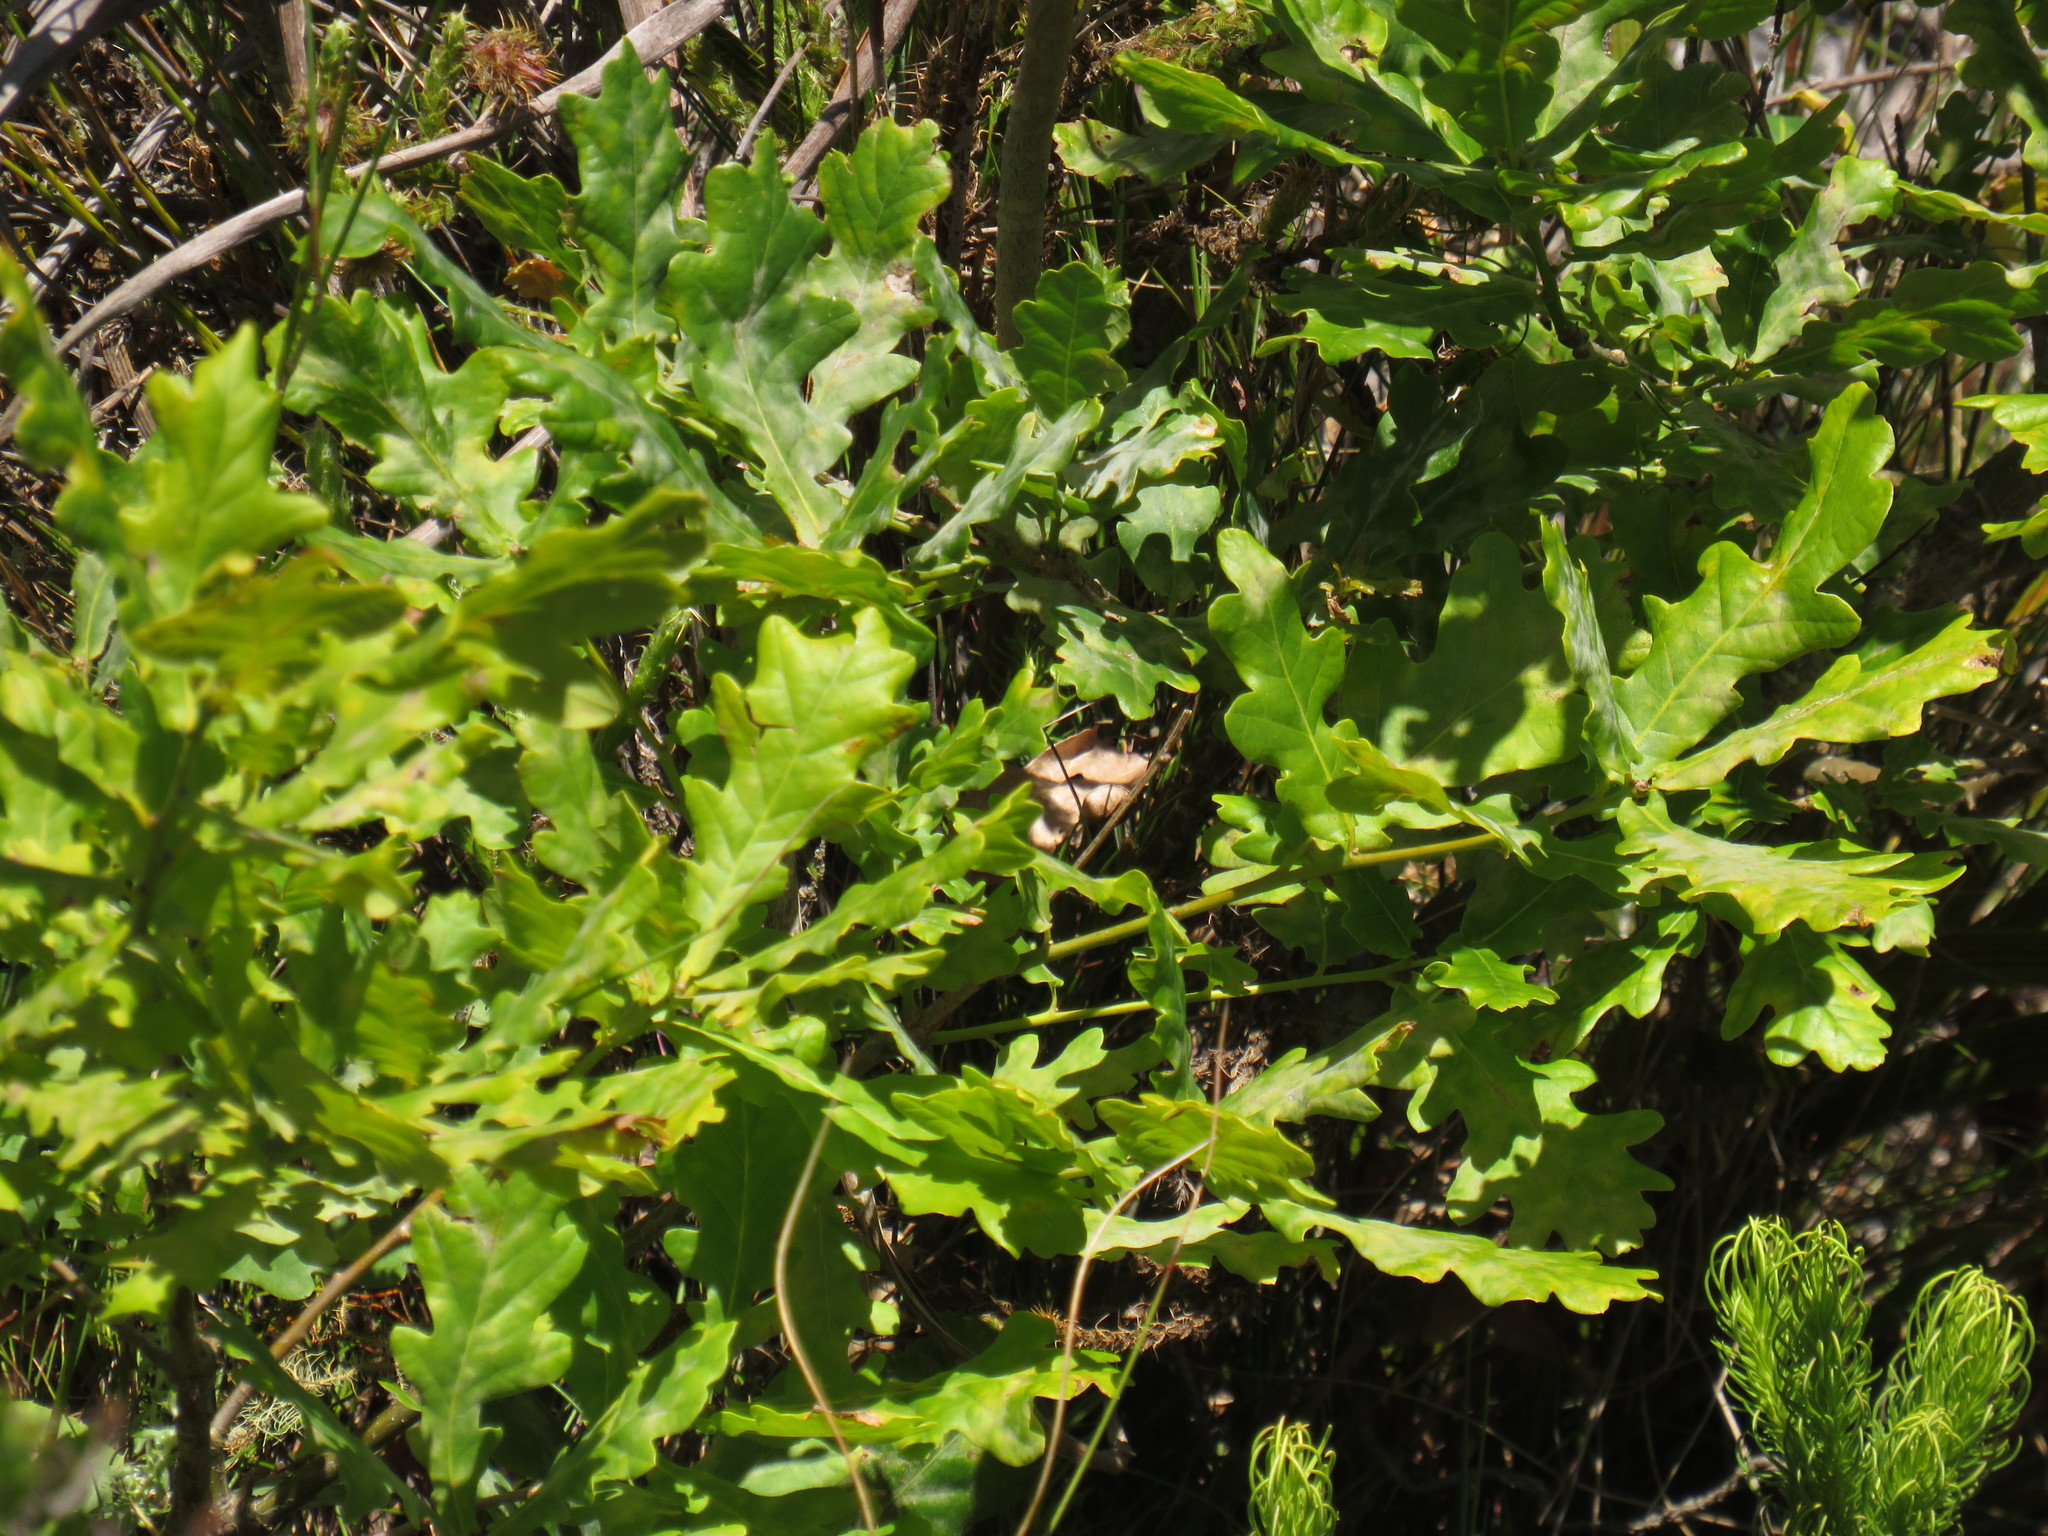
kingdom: Plantae
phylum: Tracheophyta
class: Magnoliopsida
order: Fagales
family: Fagaceae
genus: Quercus
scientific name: Quercus robur
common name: Pedunculate oak
